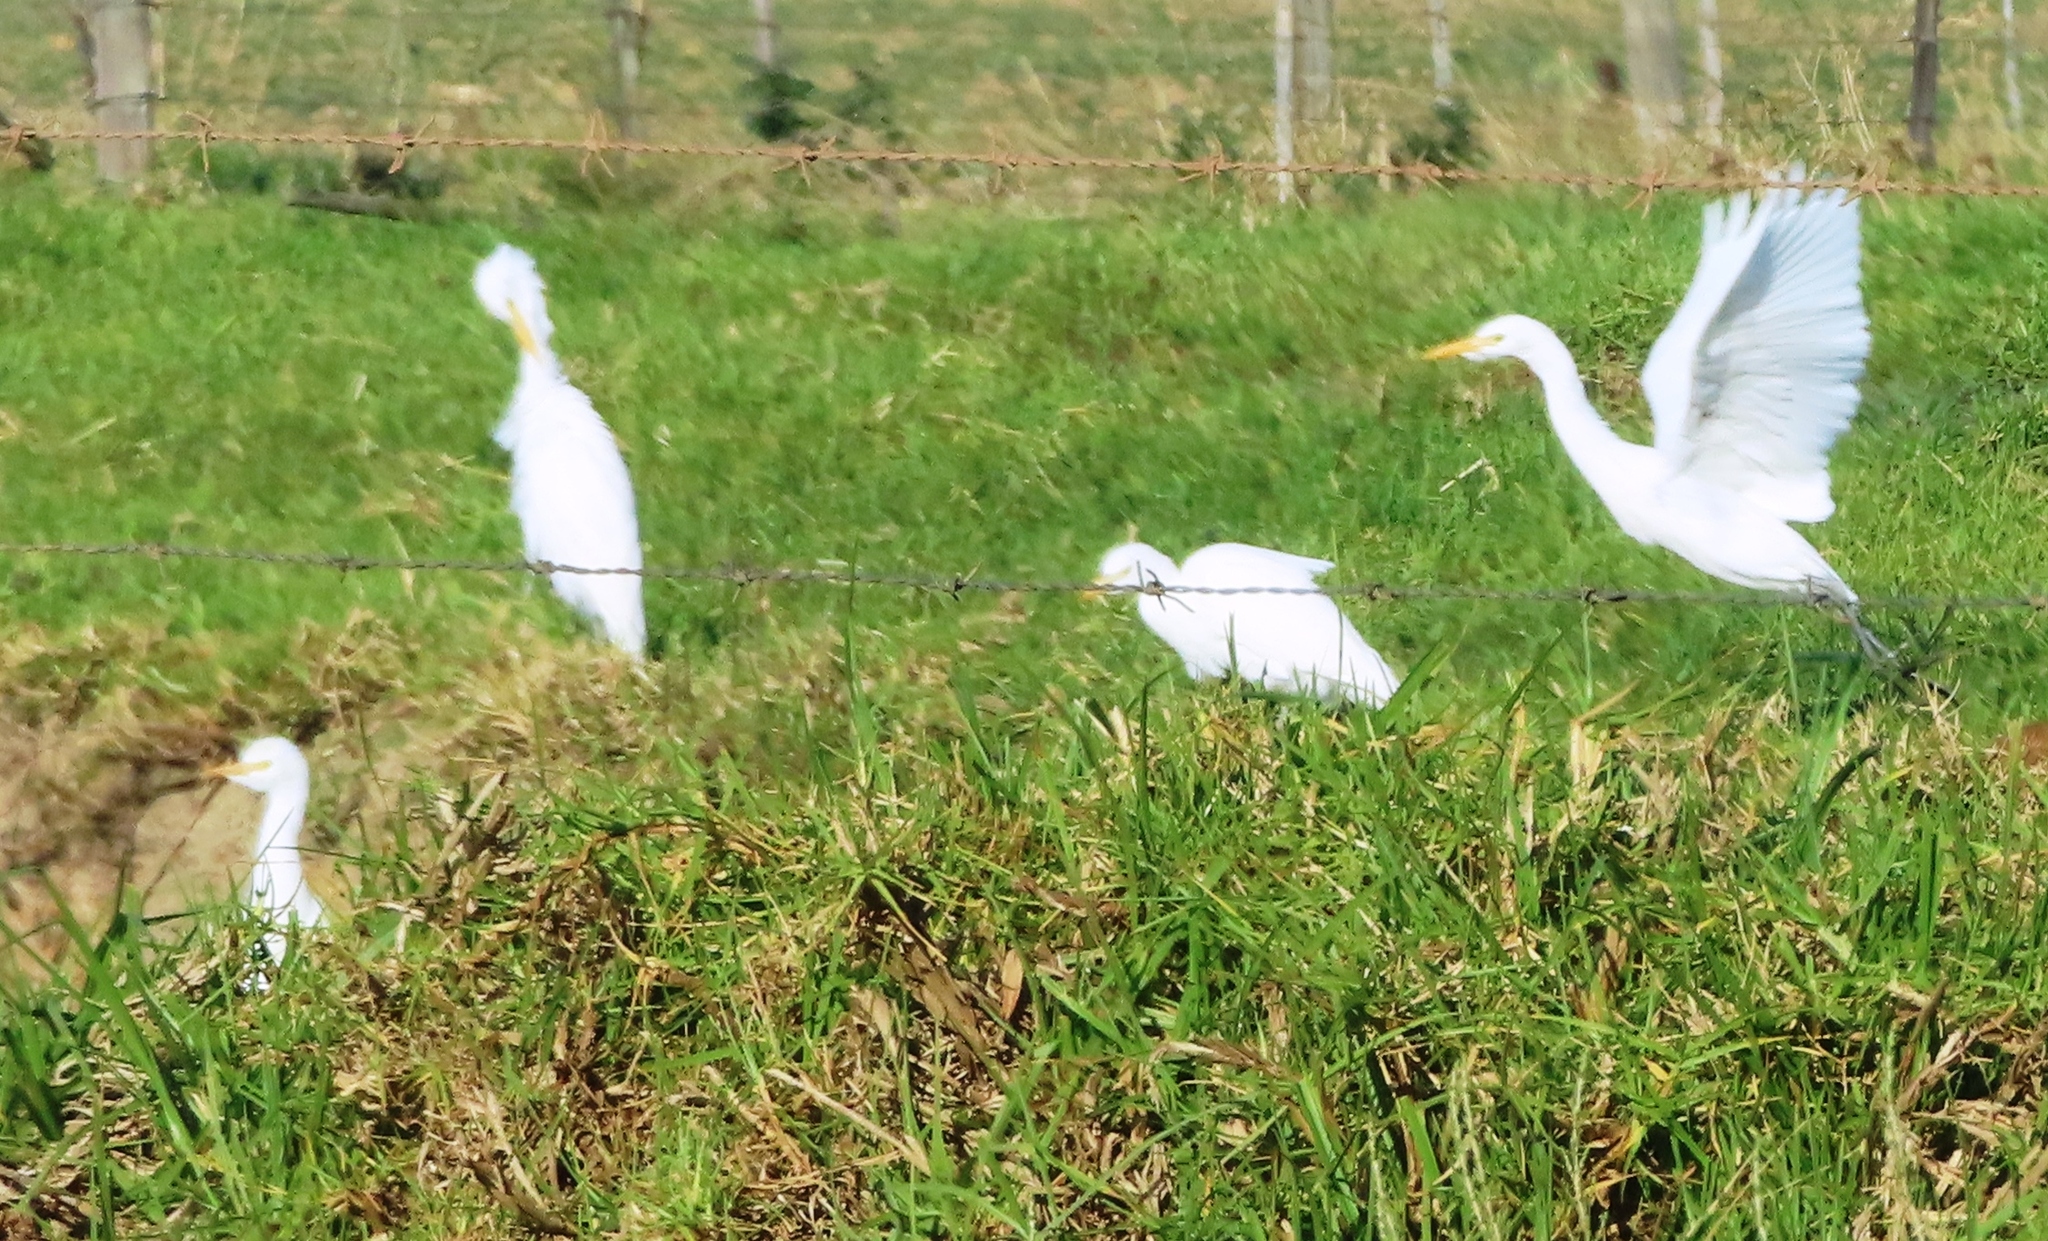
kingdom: Animalia
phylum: Chordata
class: Aves
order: Pelecaniformes
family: Ardeidae
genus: Bubulcus
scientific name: Bubulcus ibis
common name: Cattle egret
